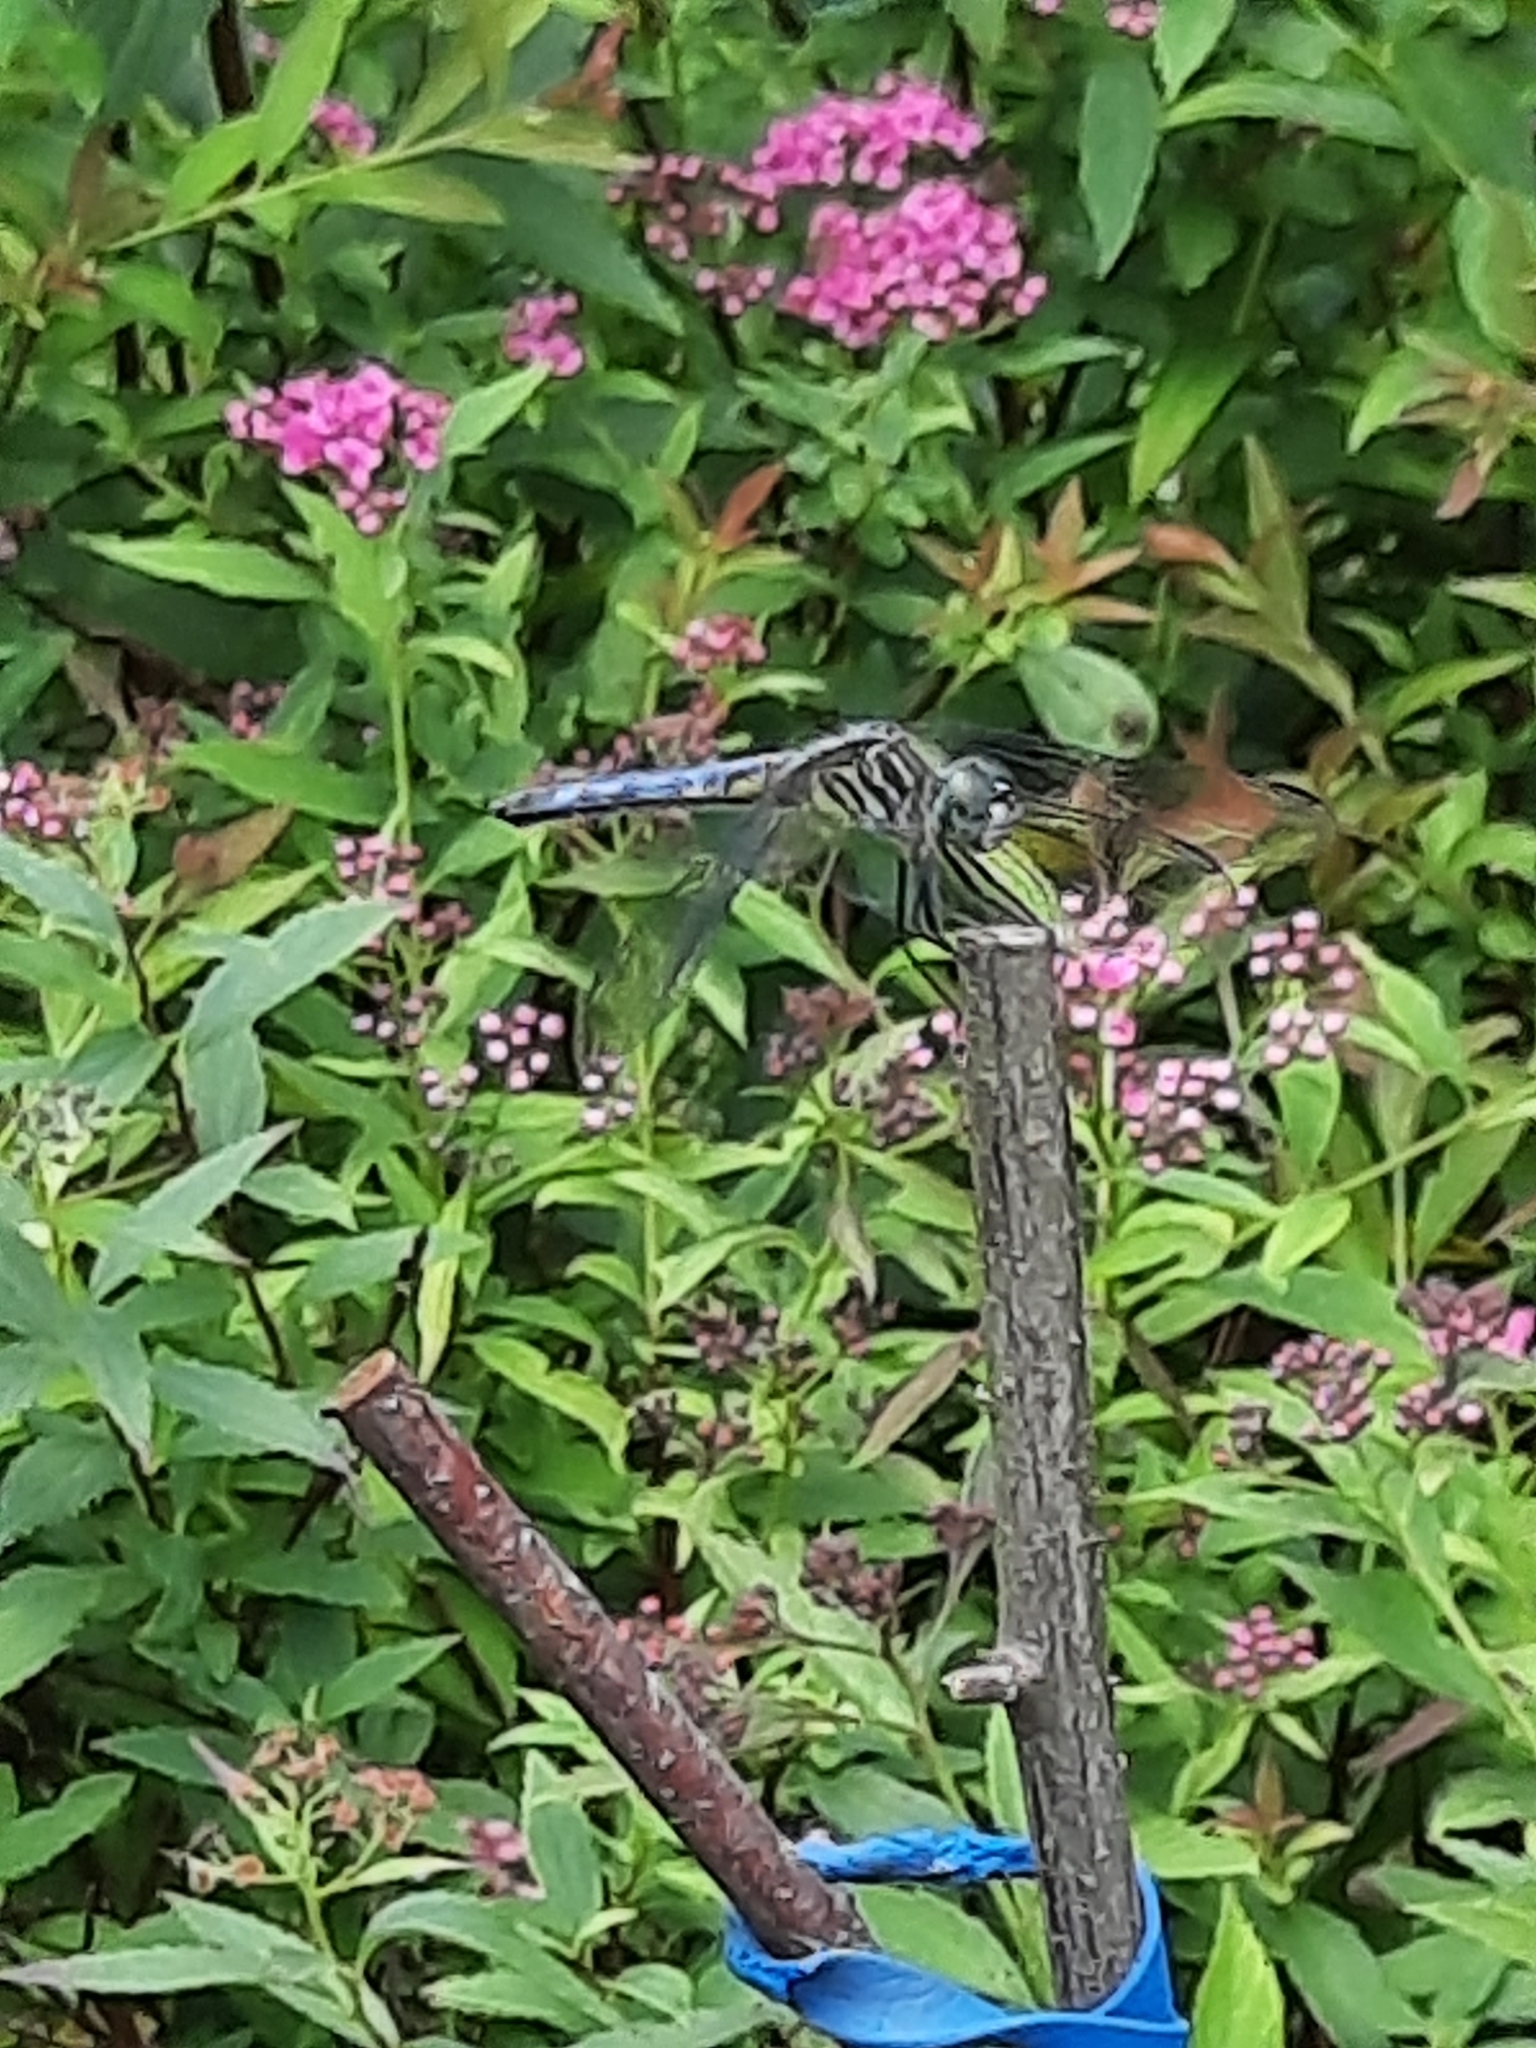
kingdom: Animalia
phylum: Arthropoda
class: Insecta
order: Odonata
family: Libellulidae
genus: Pachydiplax
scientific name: Pachydiplax longipennis
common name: Blue dasher
